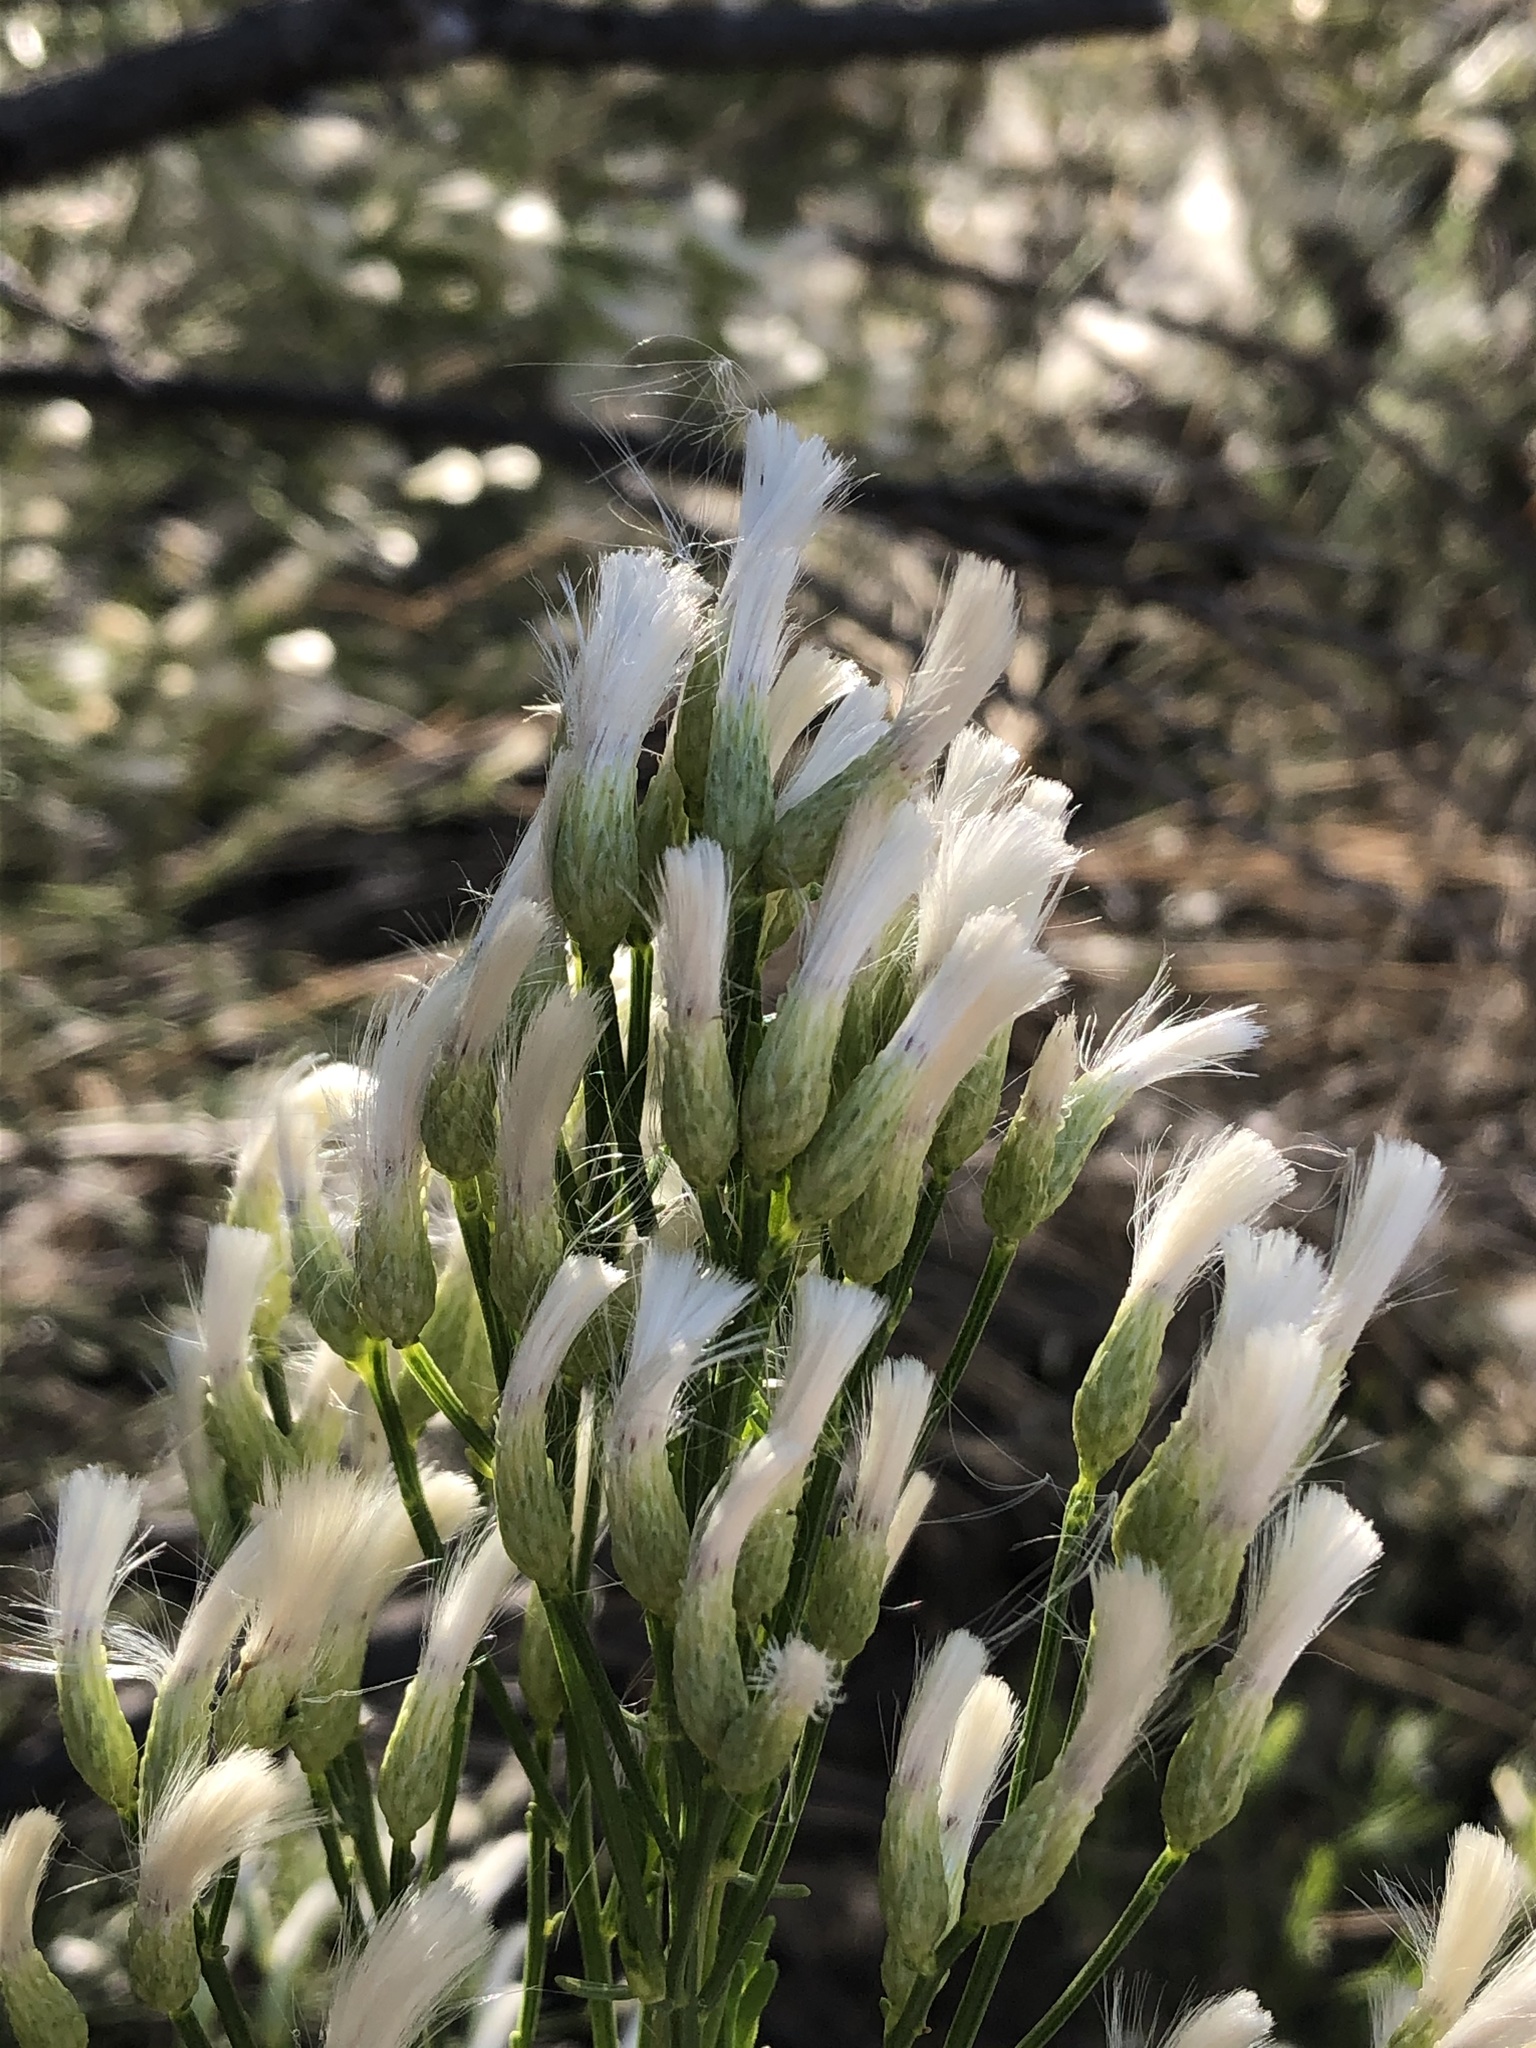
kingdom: Plantae
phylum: Tracheophyta
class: Magnoliopsida
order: Asterales
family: Asteraceae
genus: Baccharis
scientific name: Baccharis sarothroides
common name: Desert-broom
